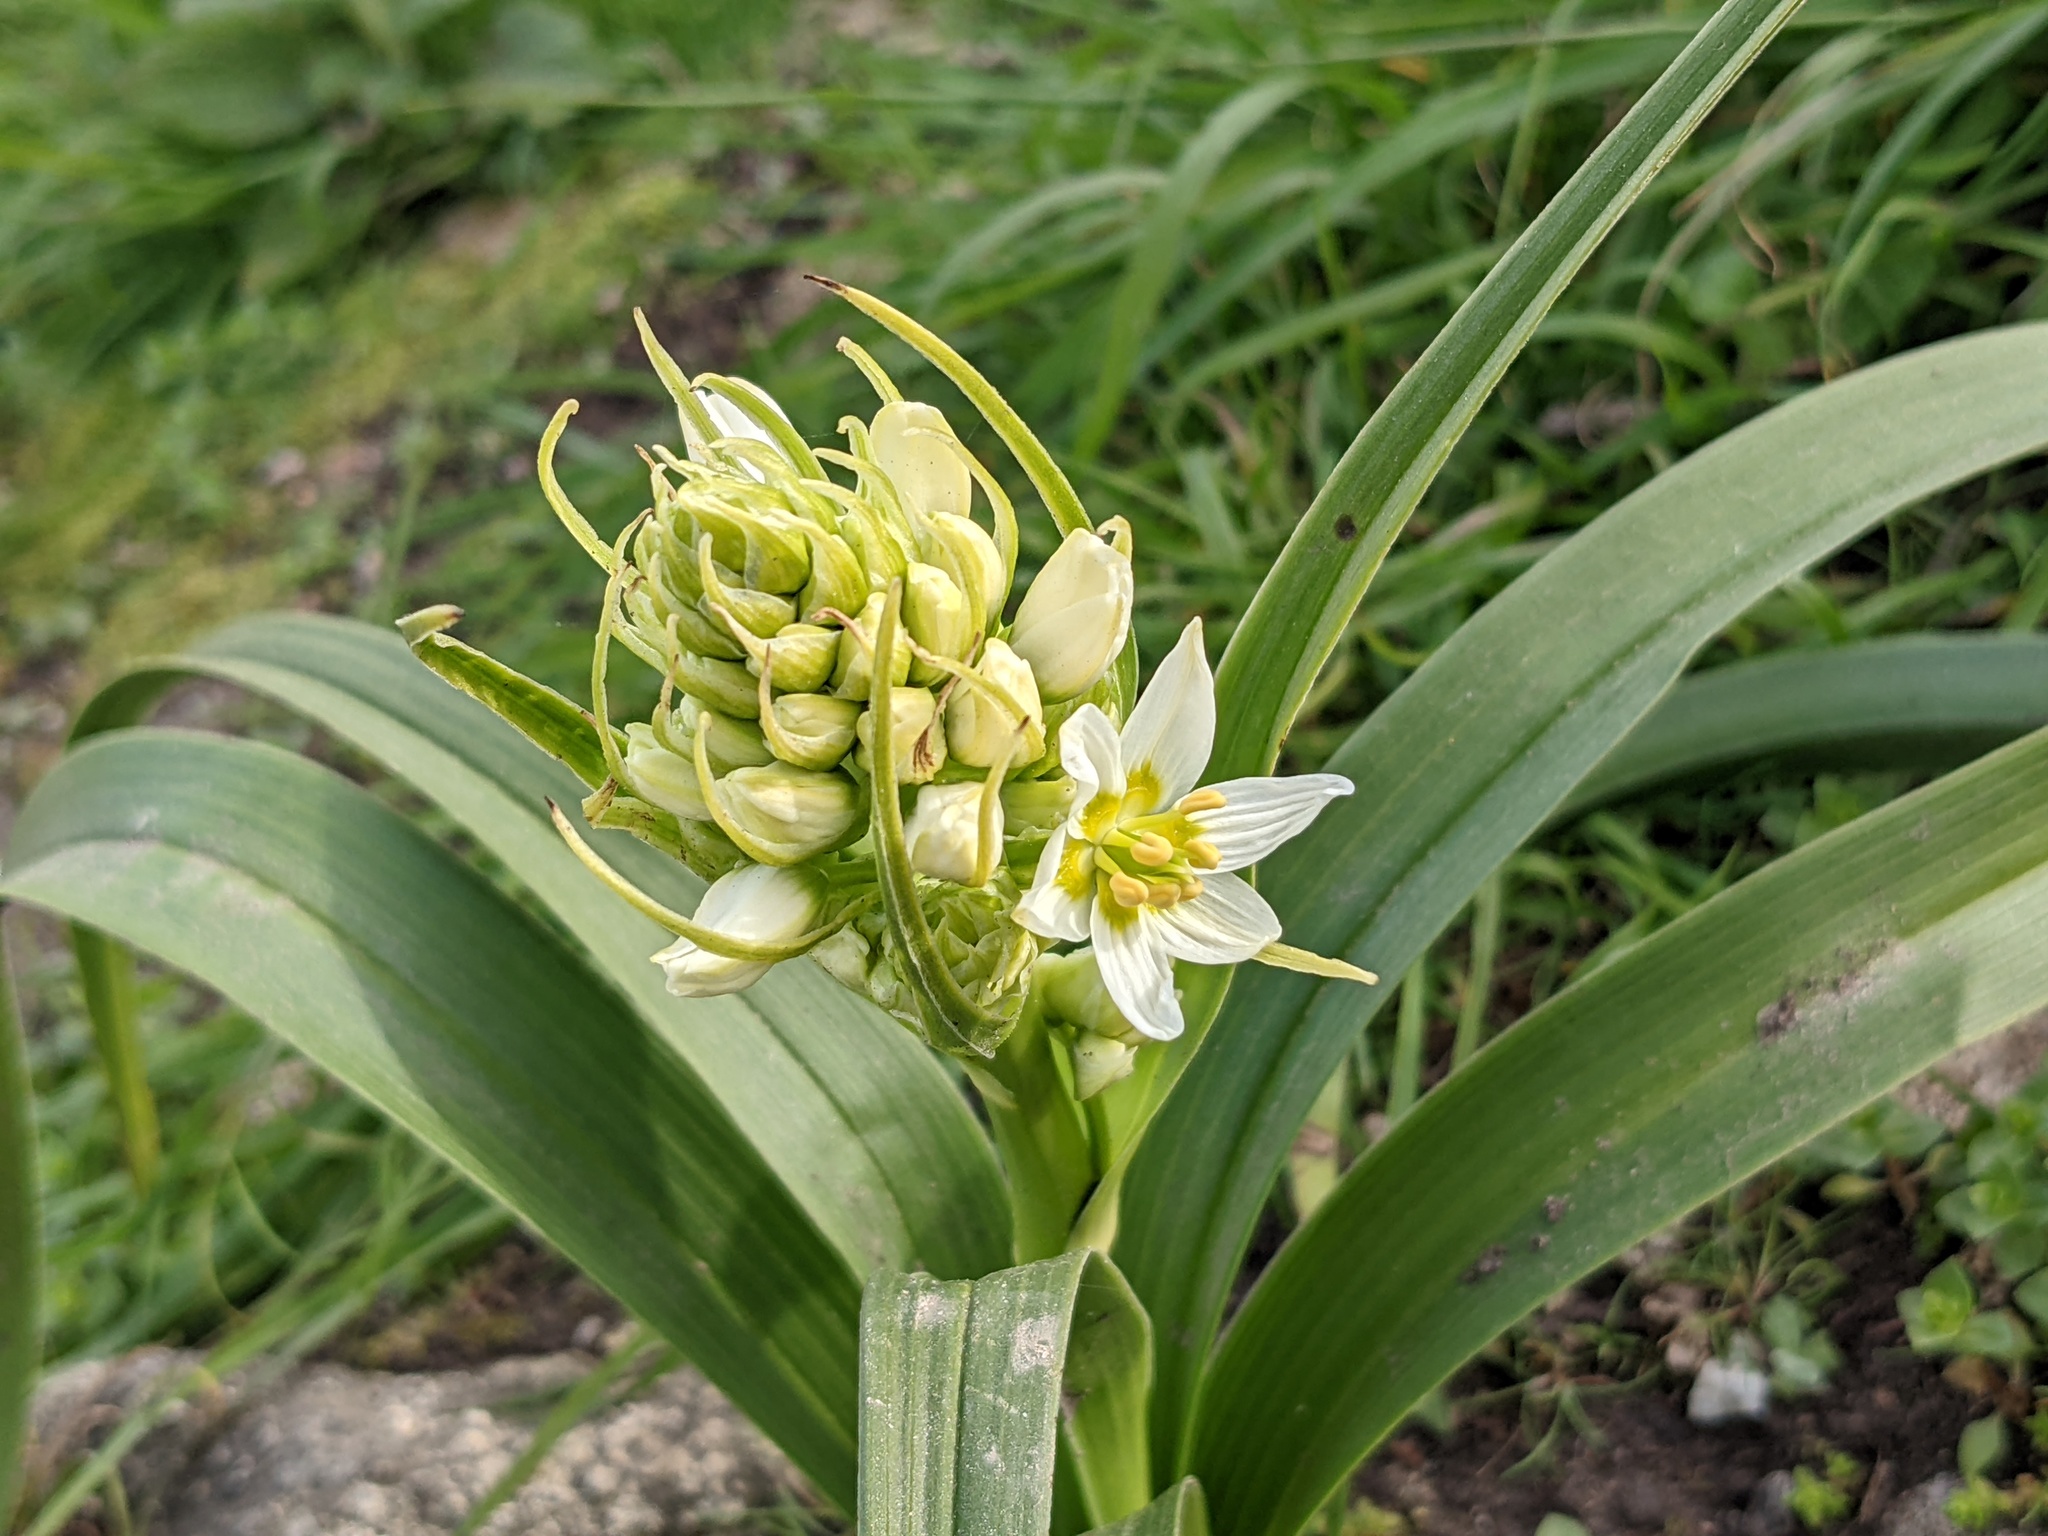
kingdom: Plantae
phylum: Tracheophyta
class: Liliopsida
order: Liliales
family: Melanthiaceae
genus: Toxicoscordion
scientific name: Toxicoscordion fremontii
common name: Fremont's death camas
